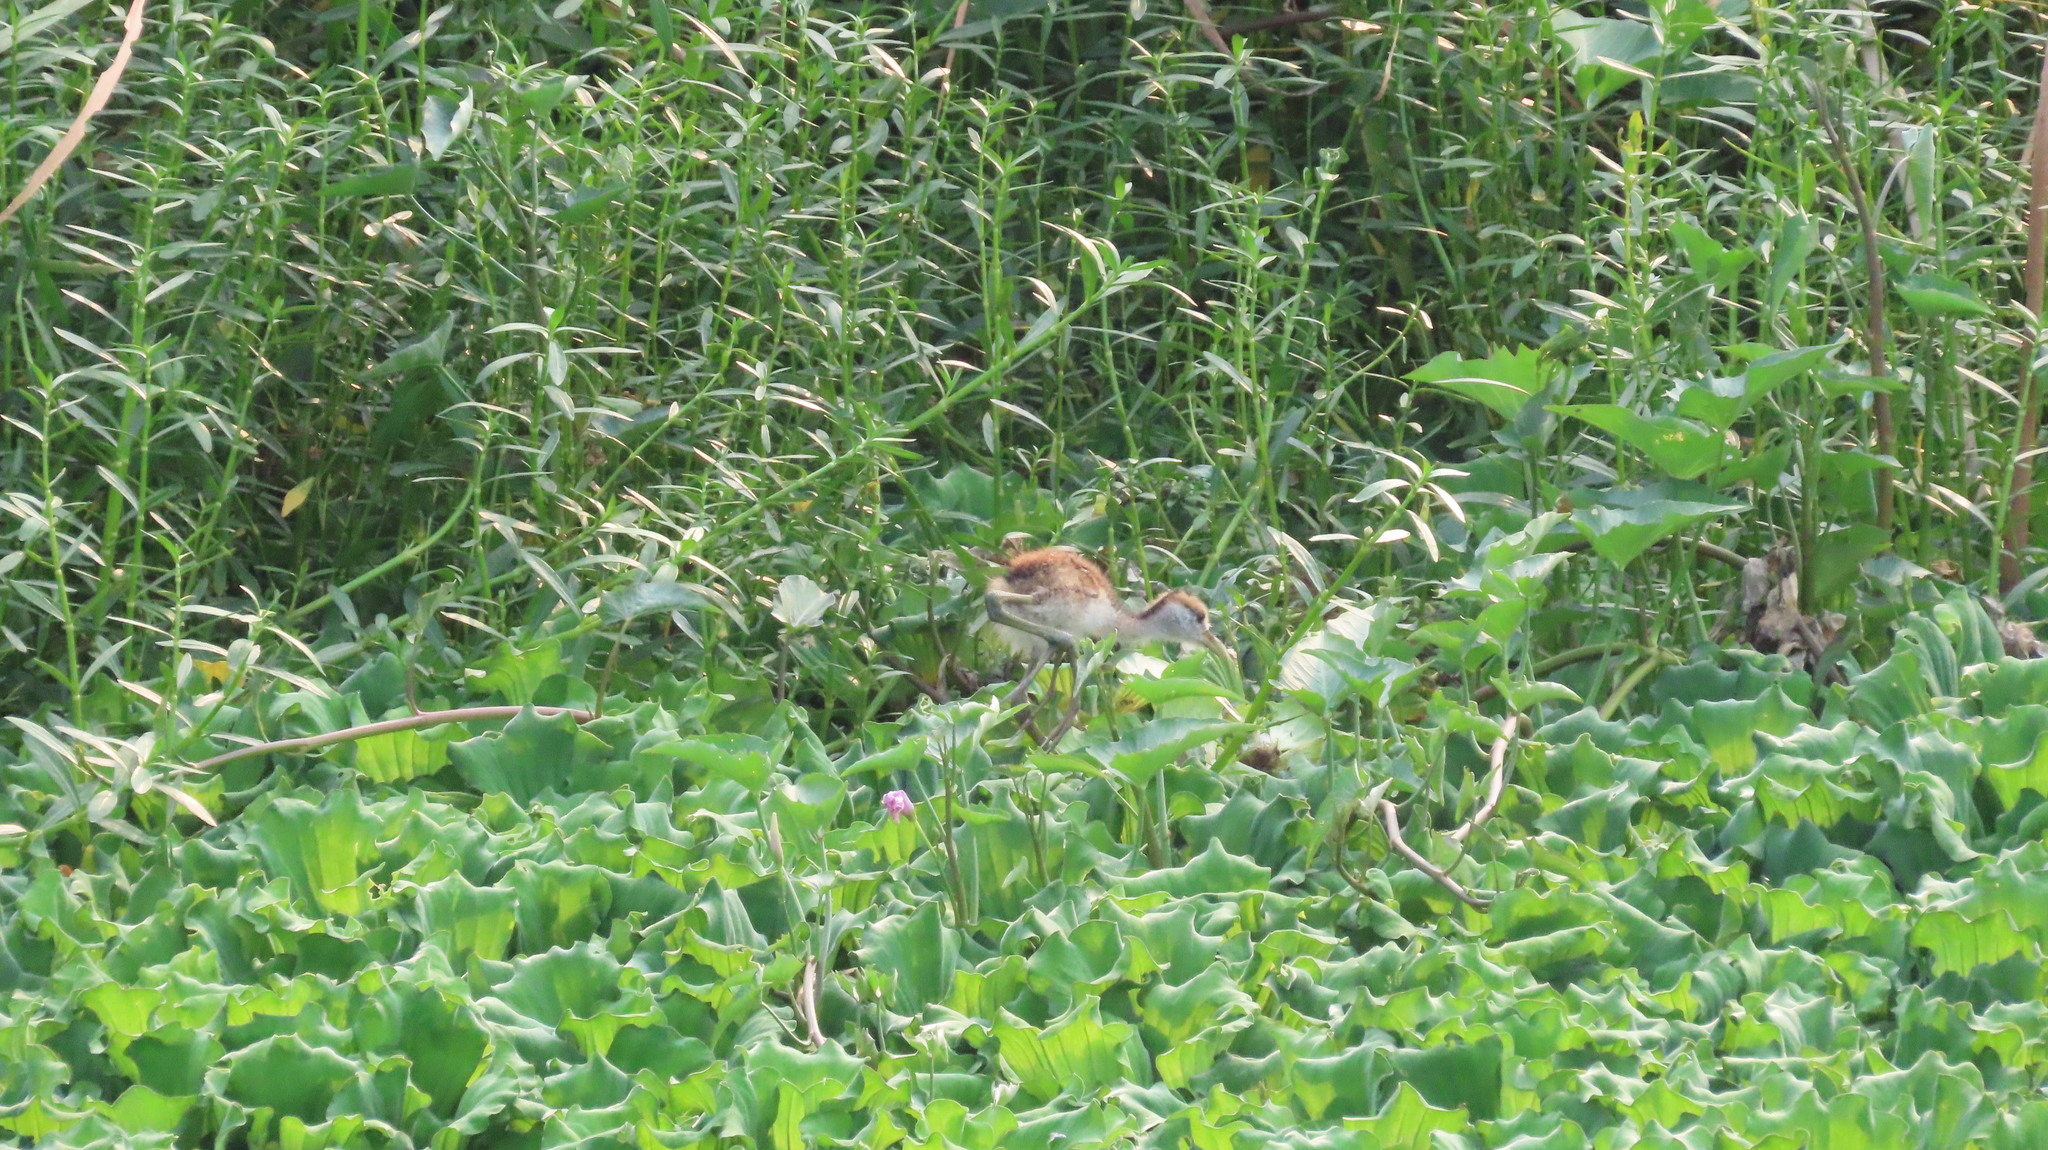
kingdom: Animalia
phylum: Chordata
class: Aves
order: Charadriiformes
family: Jacanidae
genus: Metopidius
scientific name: Metopidius indicus
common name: Bronze-winged jacana
